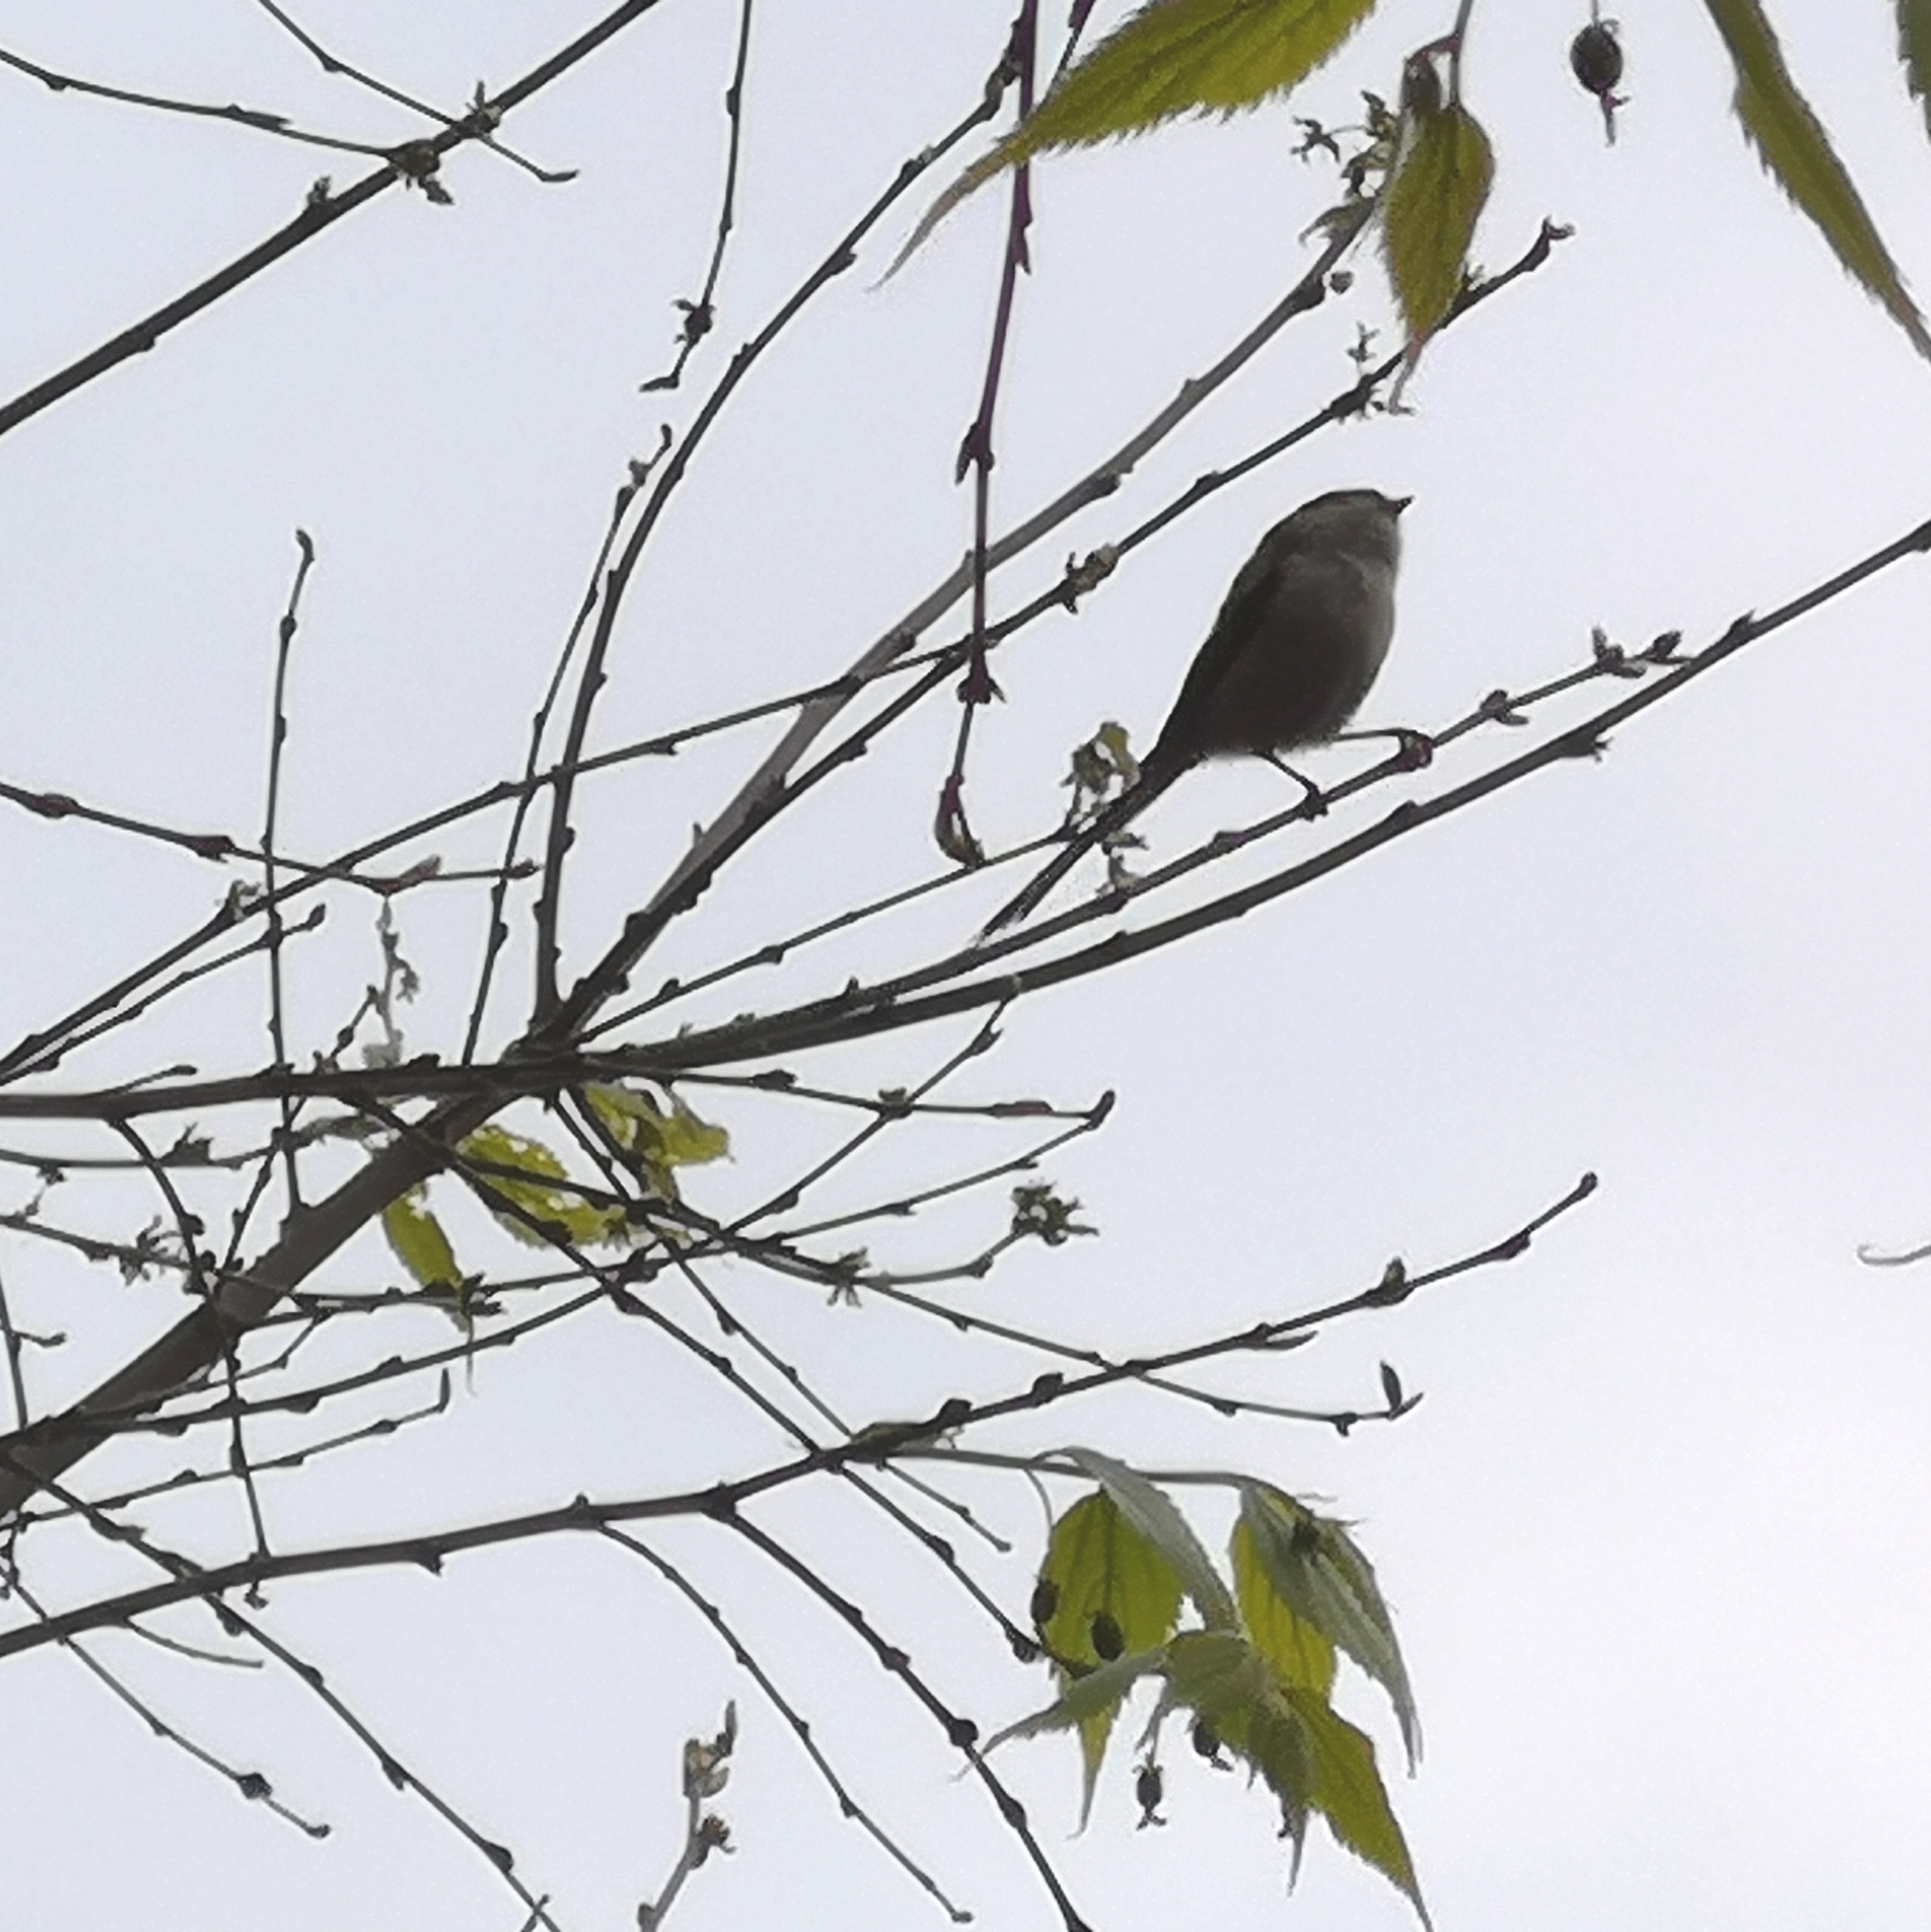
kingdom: Animalia
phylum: Chordata
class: Aves
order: Passeriformes
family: Aegithalidae
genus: Aegithalos
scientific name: Aegithalos caudatus
